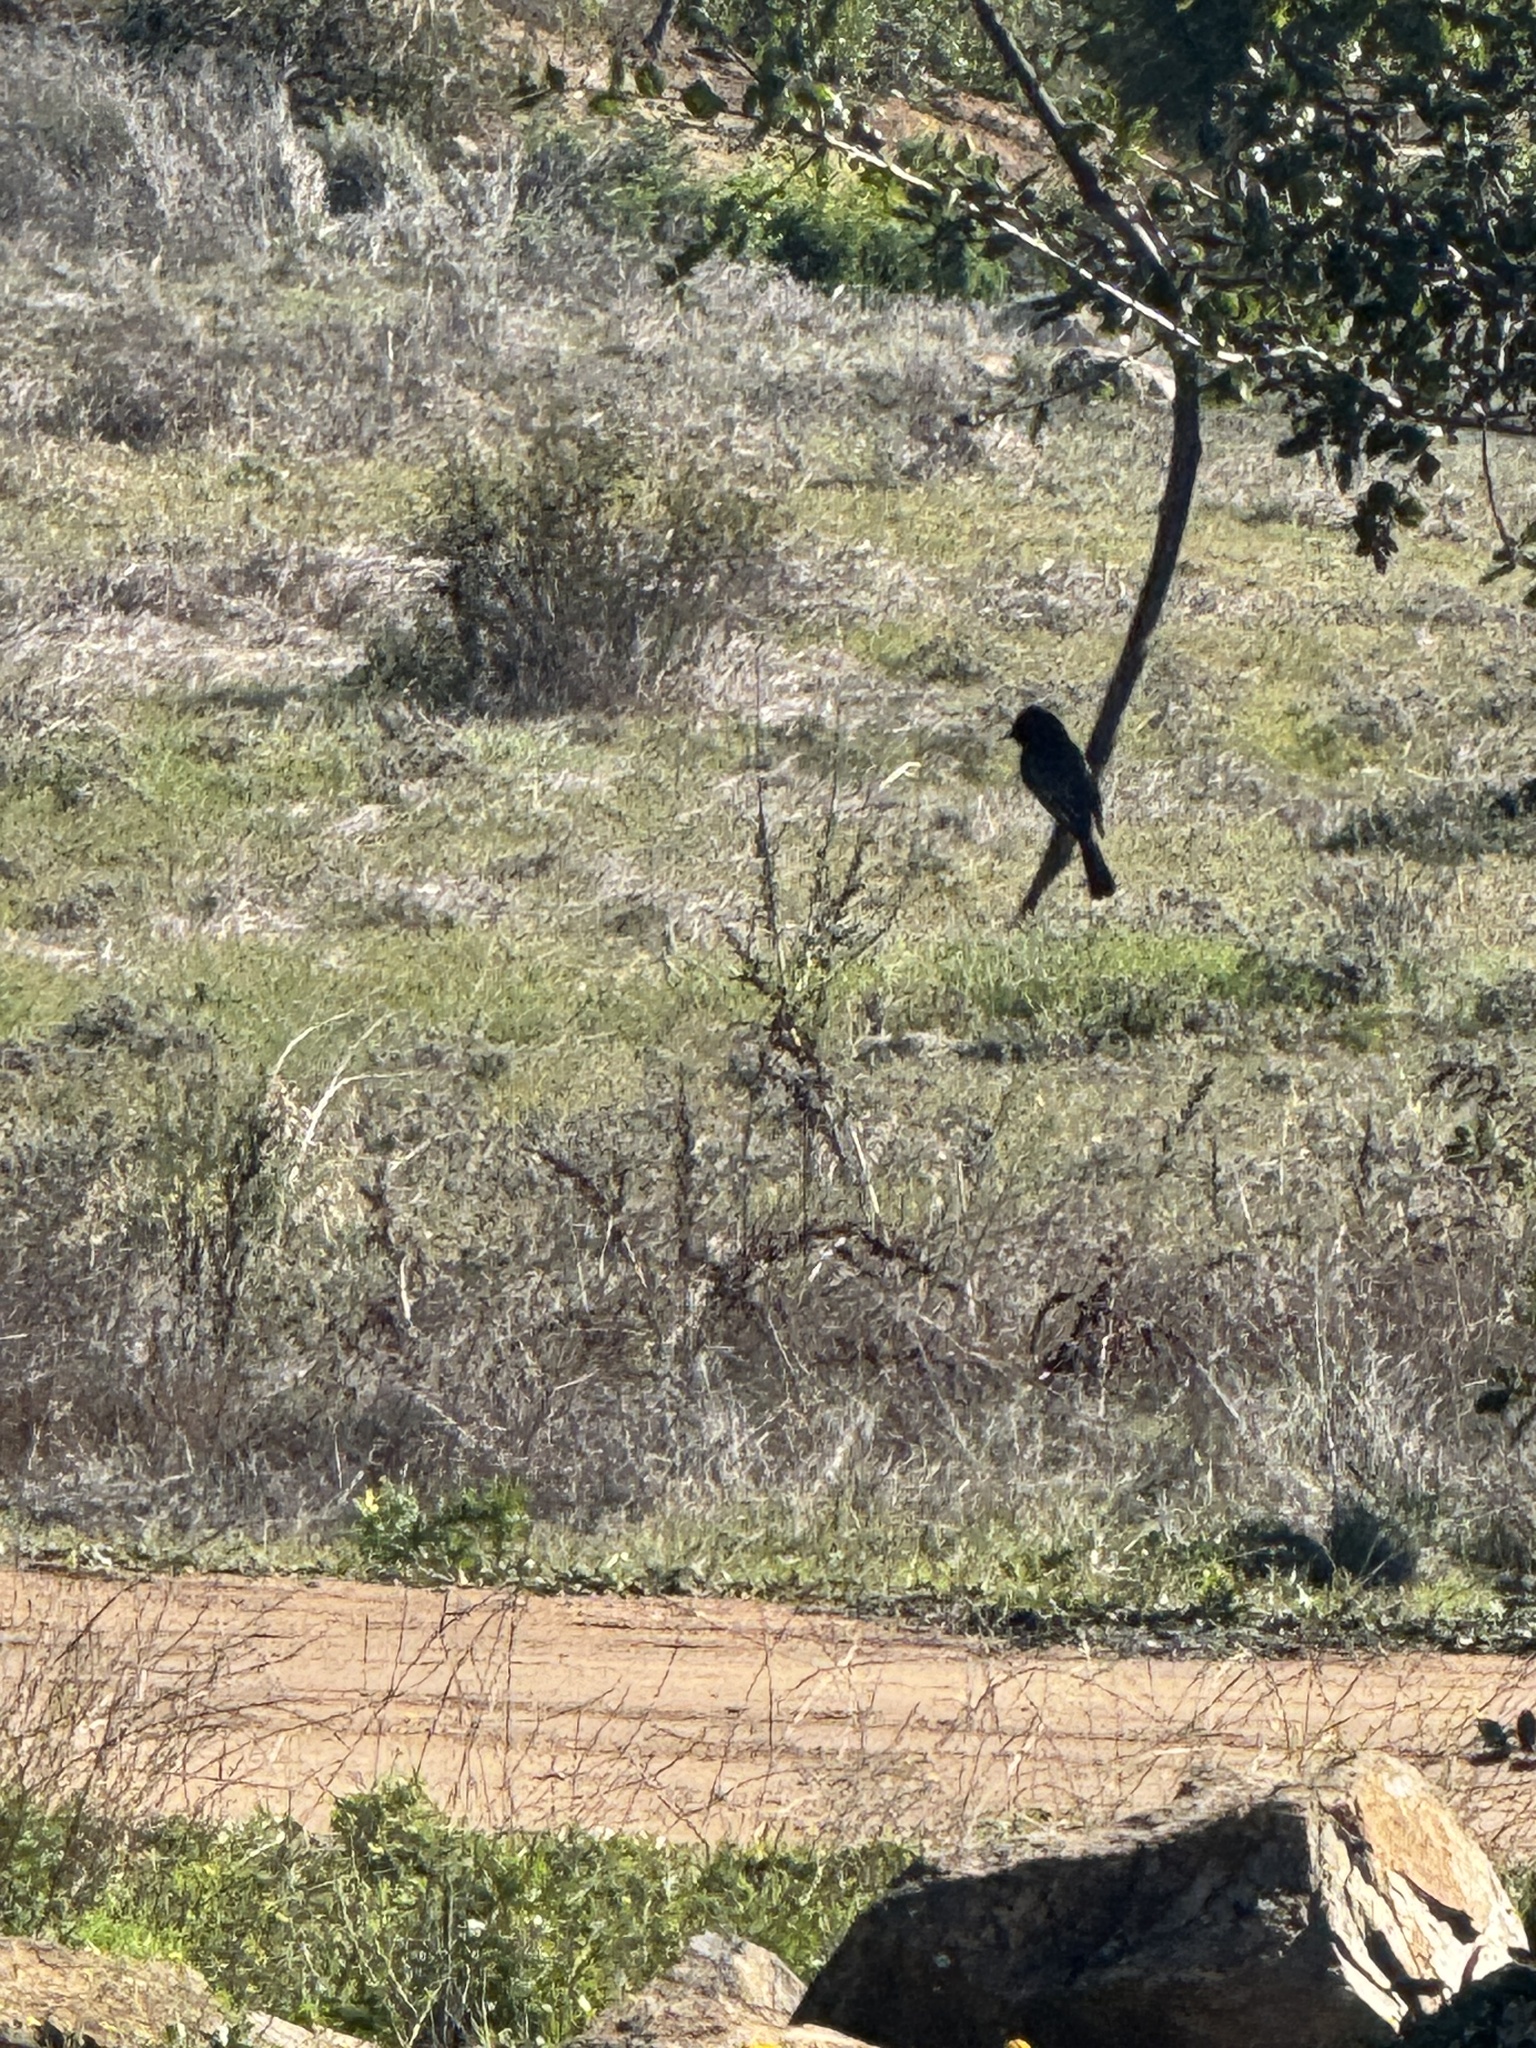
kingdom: Animalia
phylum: Chordata
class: Aves
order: Passeriformes
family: Tyrannidae
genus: Sayornis
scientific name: Sayornis nigricans
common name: Black phoebe
